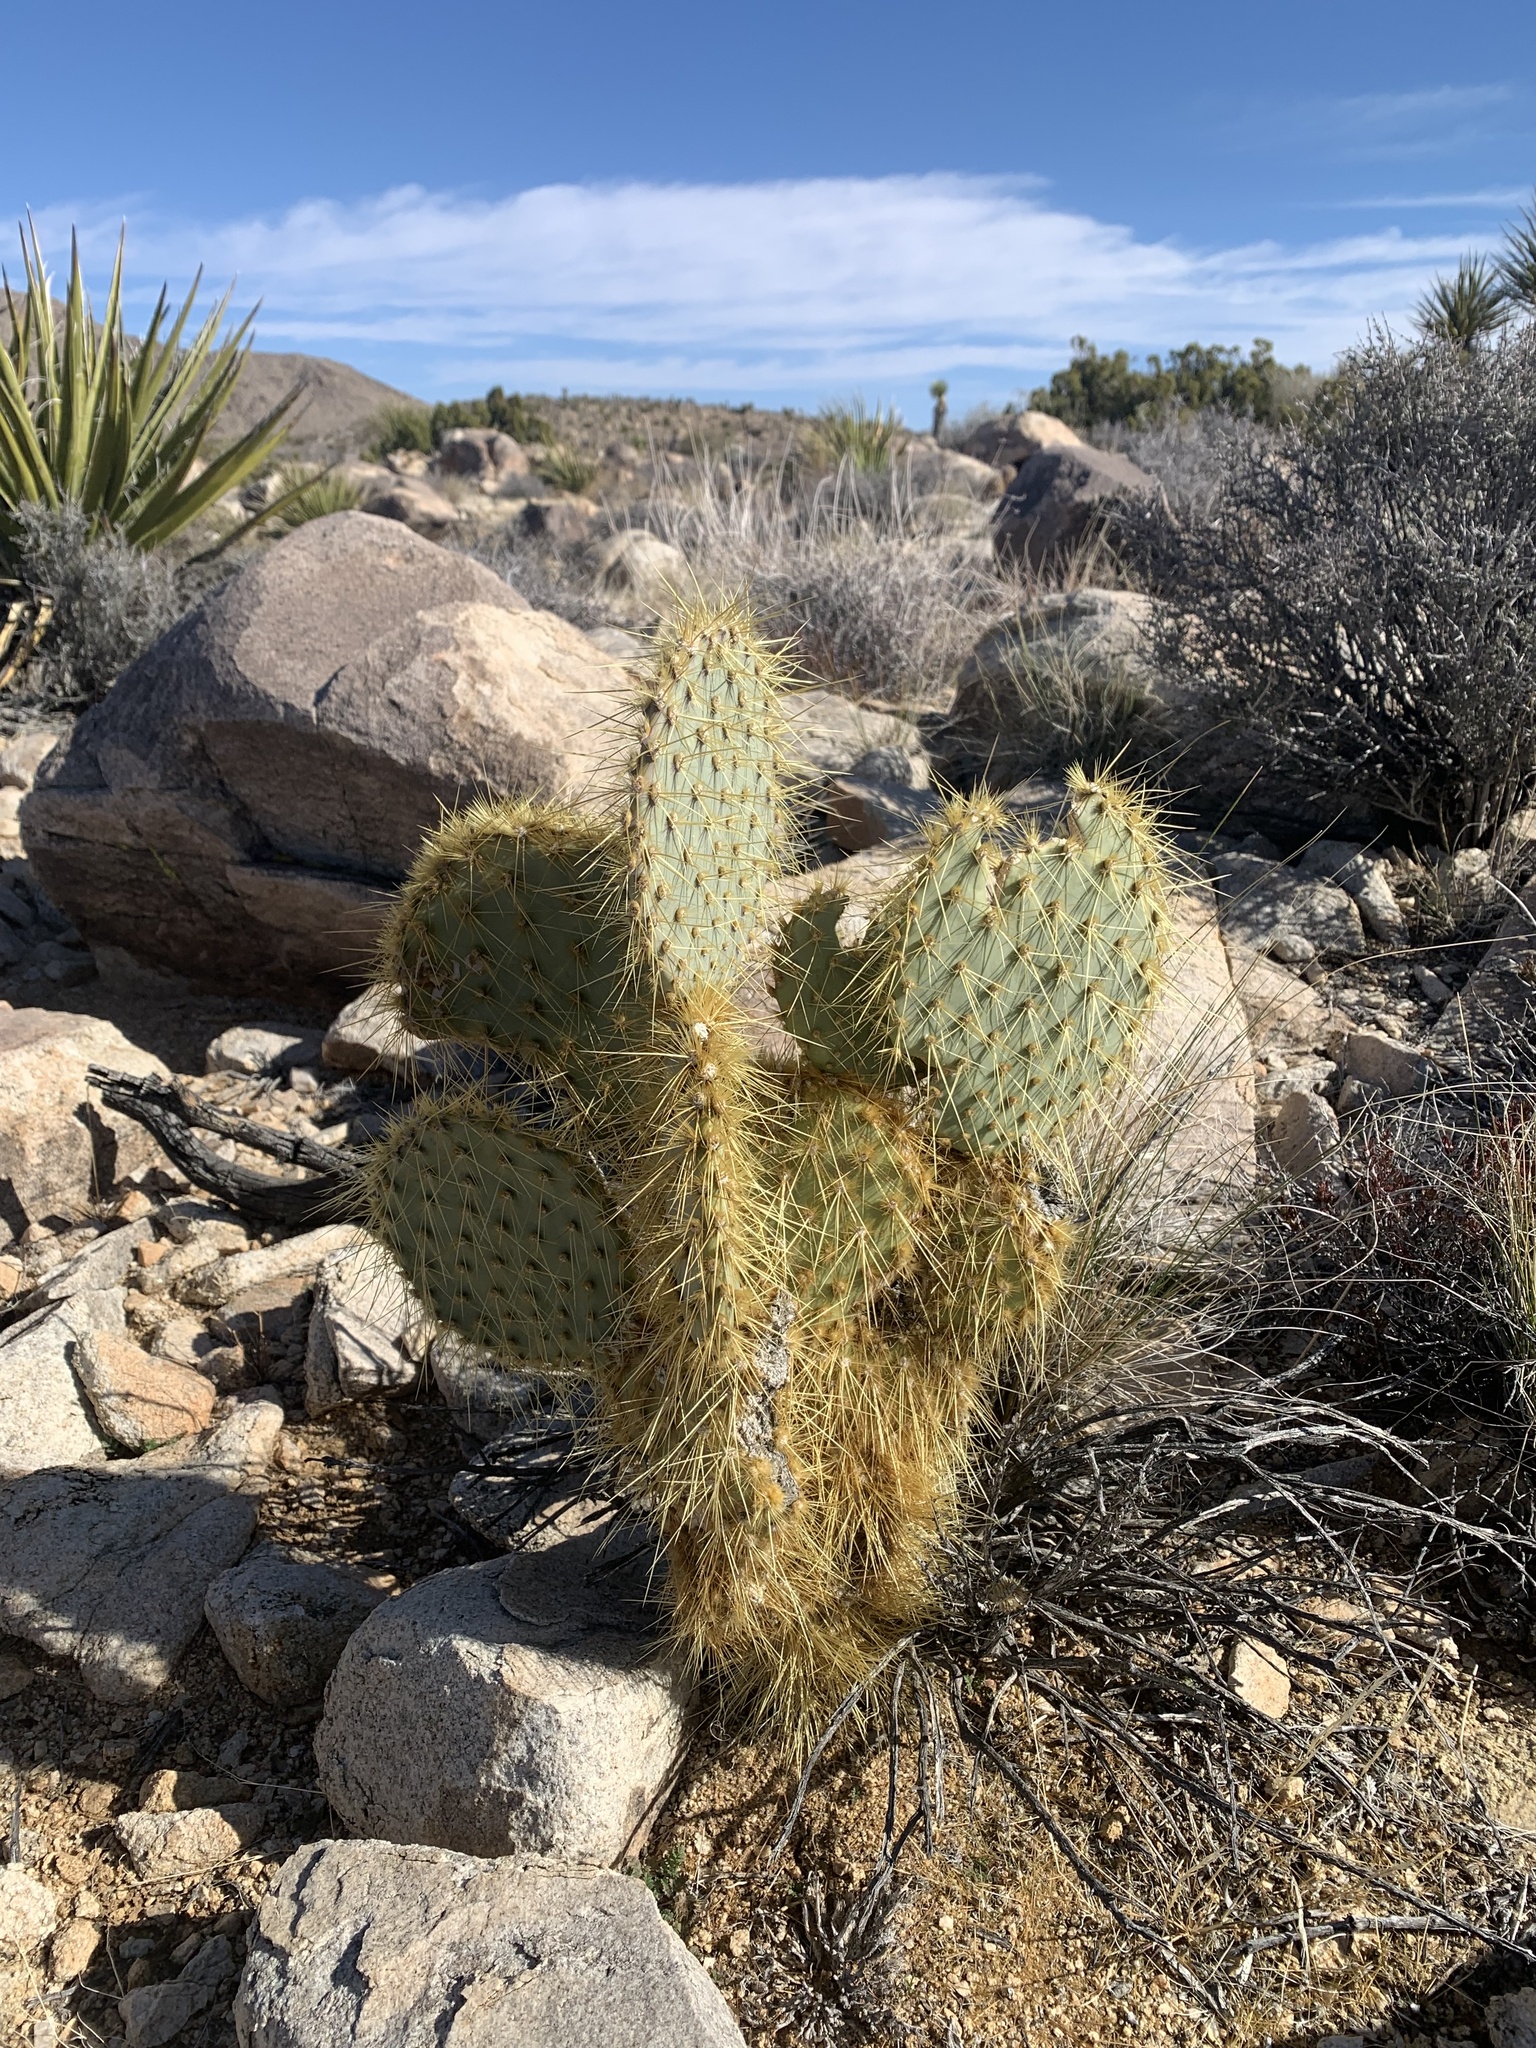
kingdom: Plantae
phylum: Tracheophyta
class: Magnoliopsida
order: Caryophyllales
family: Cactaceae
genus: Opuntia
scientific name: Opuntia chlorotica
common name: Dollar-joint prickly-pear
